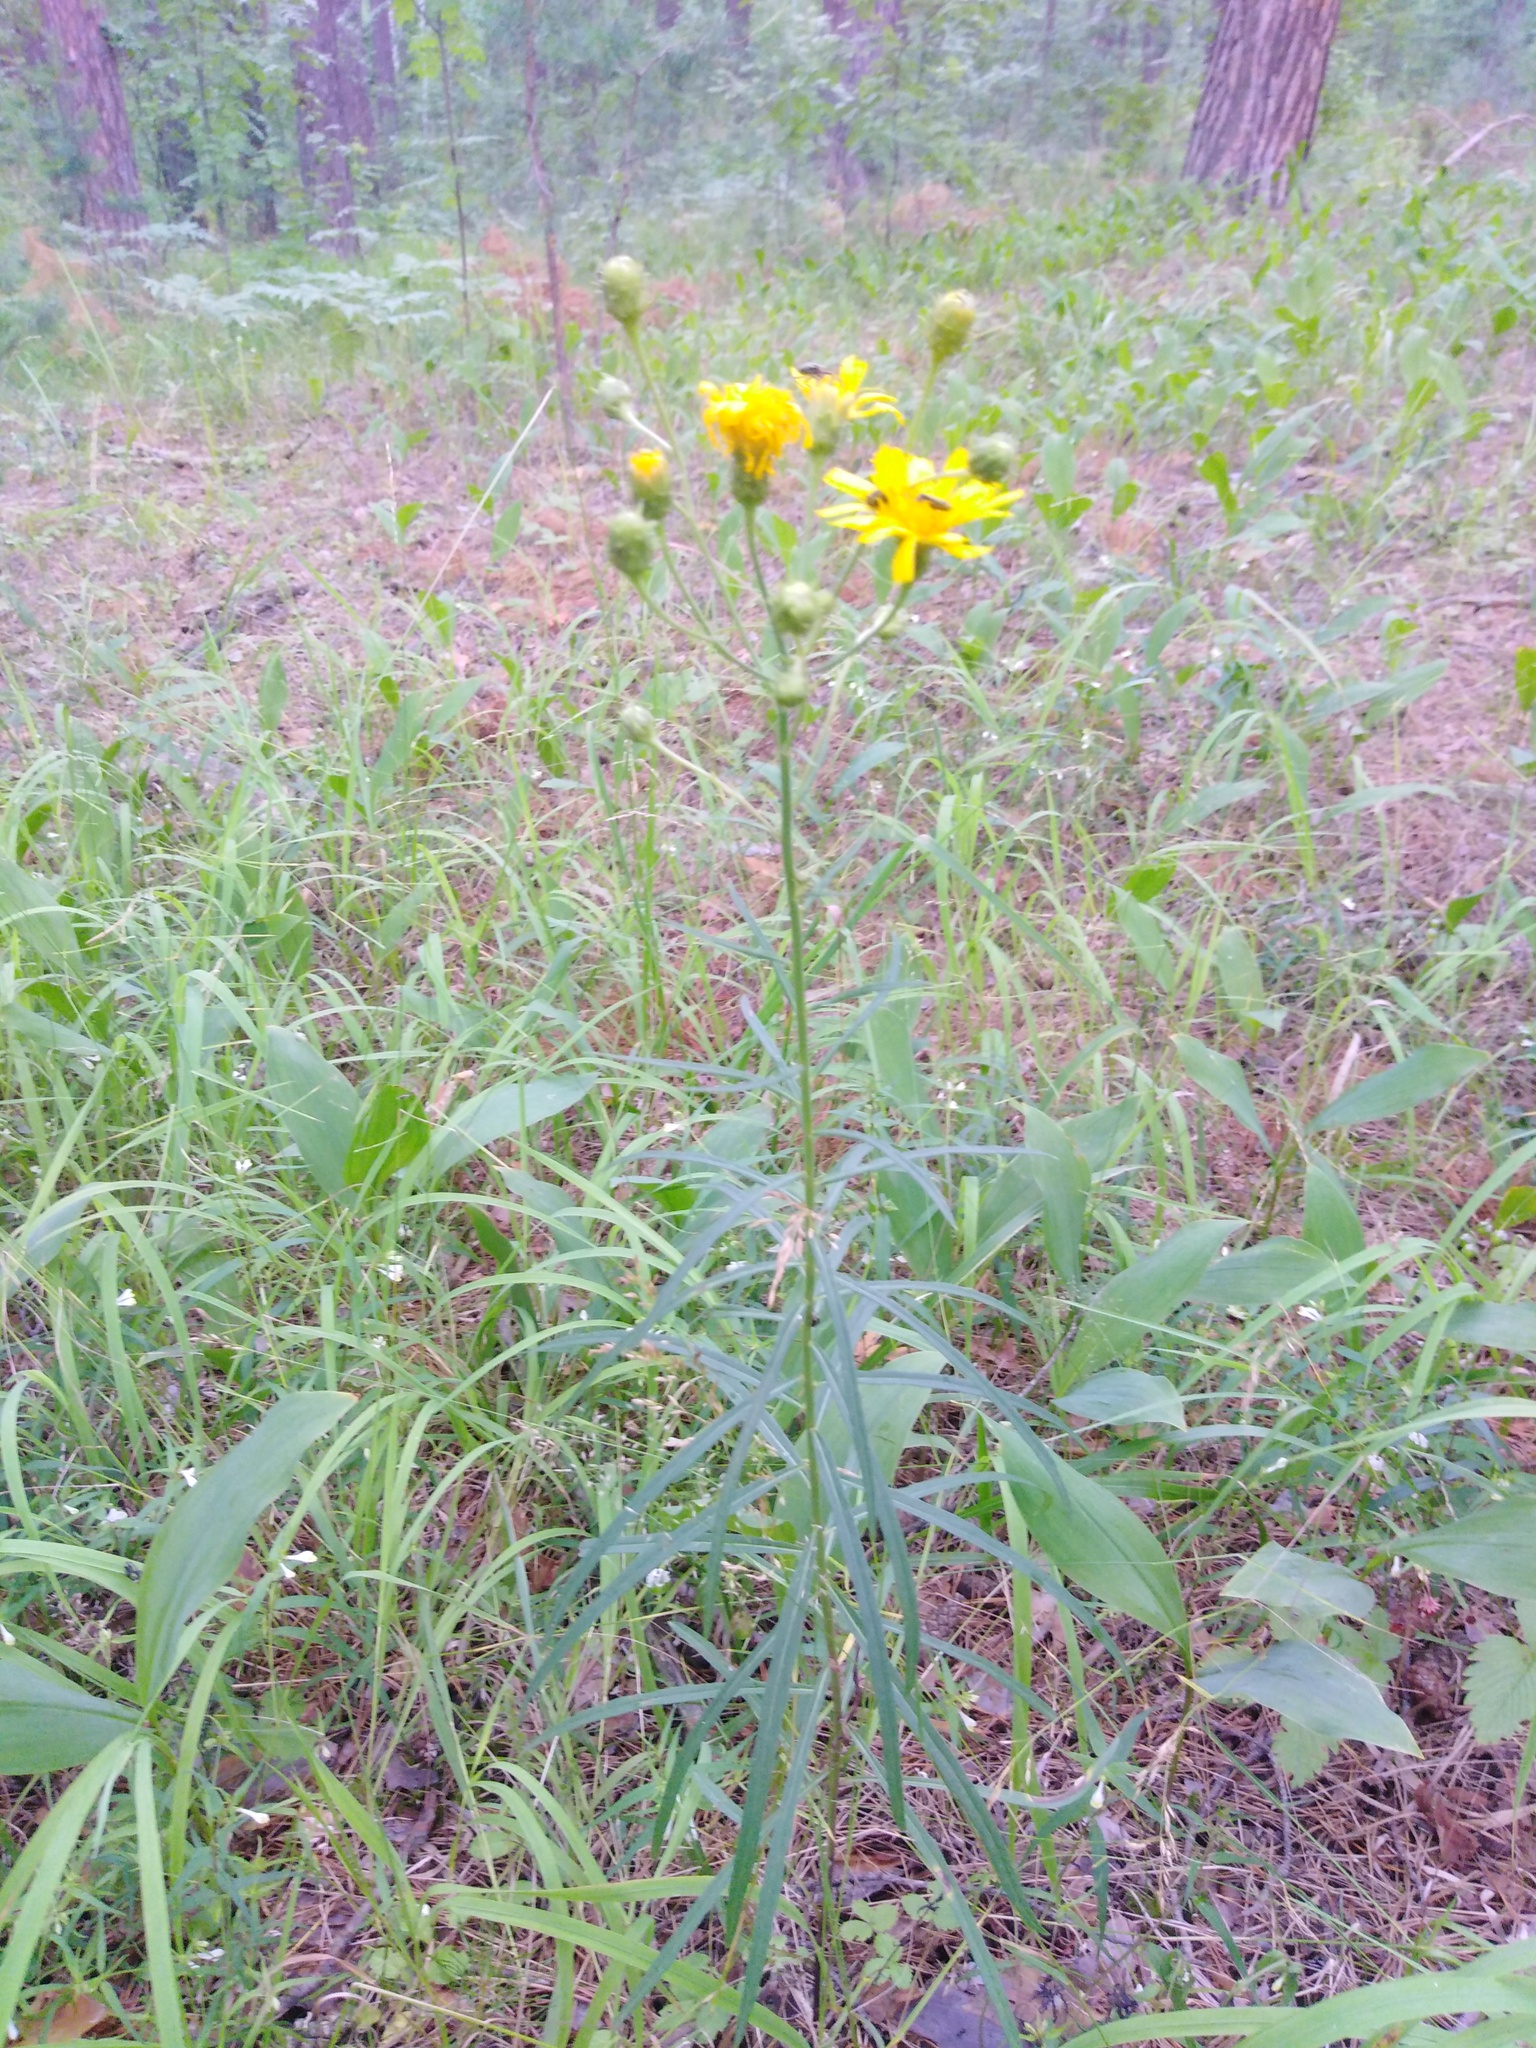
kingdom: Plantae
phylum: Tracheophyta
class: Magnoliopsida
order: Asterales
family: Asteraceae
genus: Hieracium
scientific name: Hieracium umbellatum
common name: Northern hawkweed
